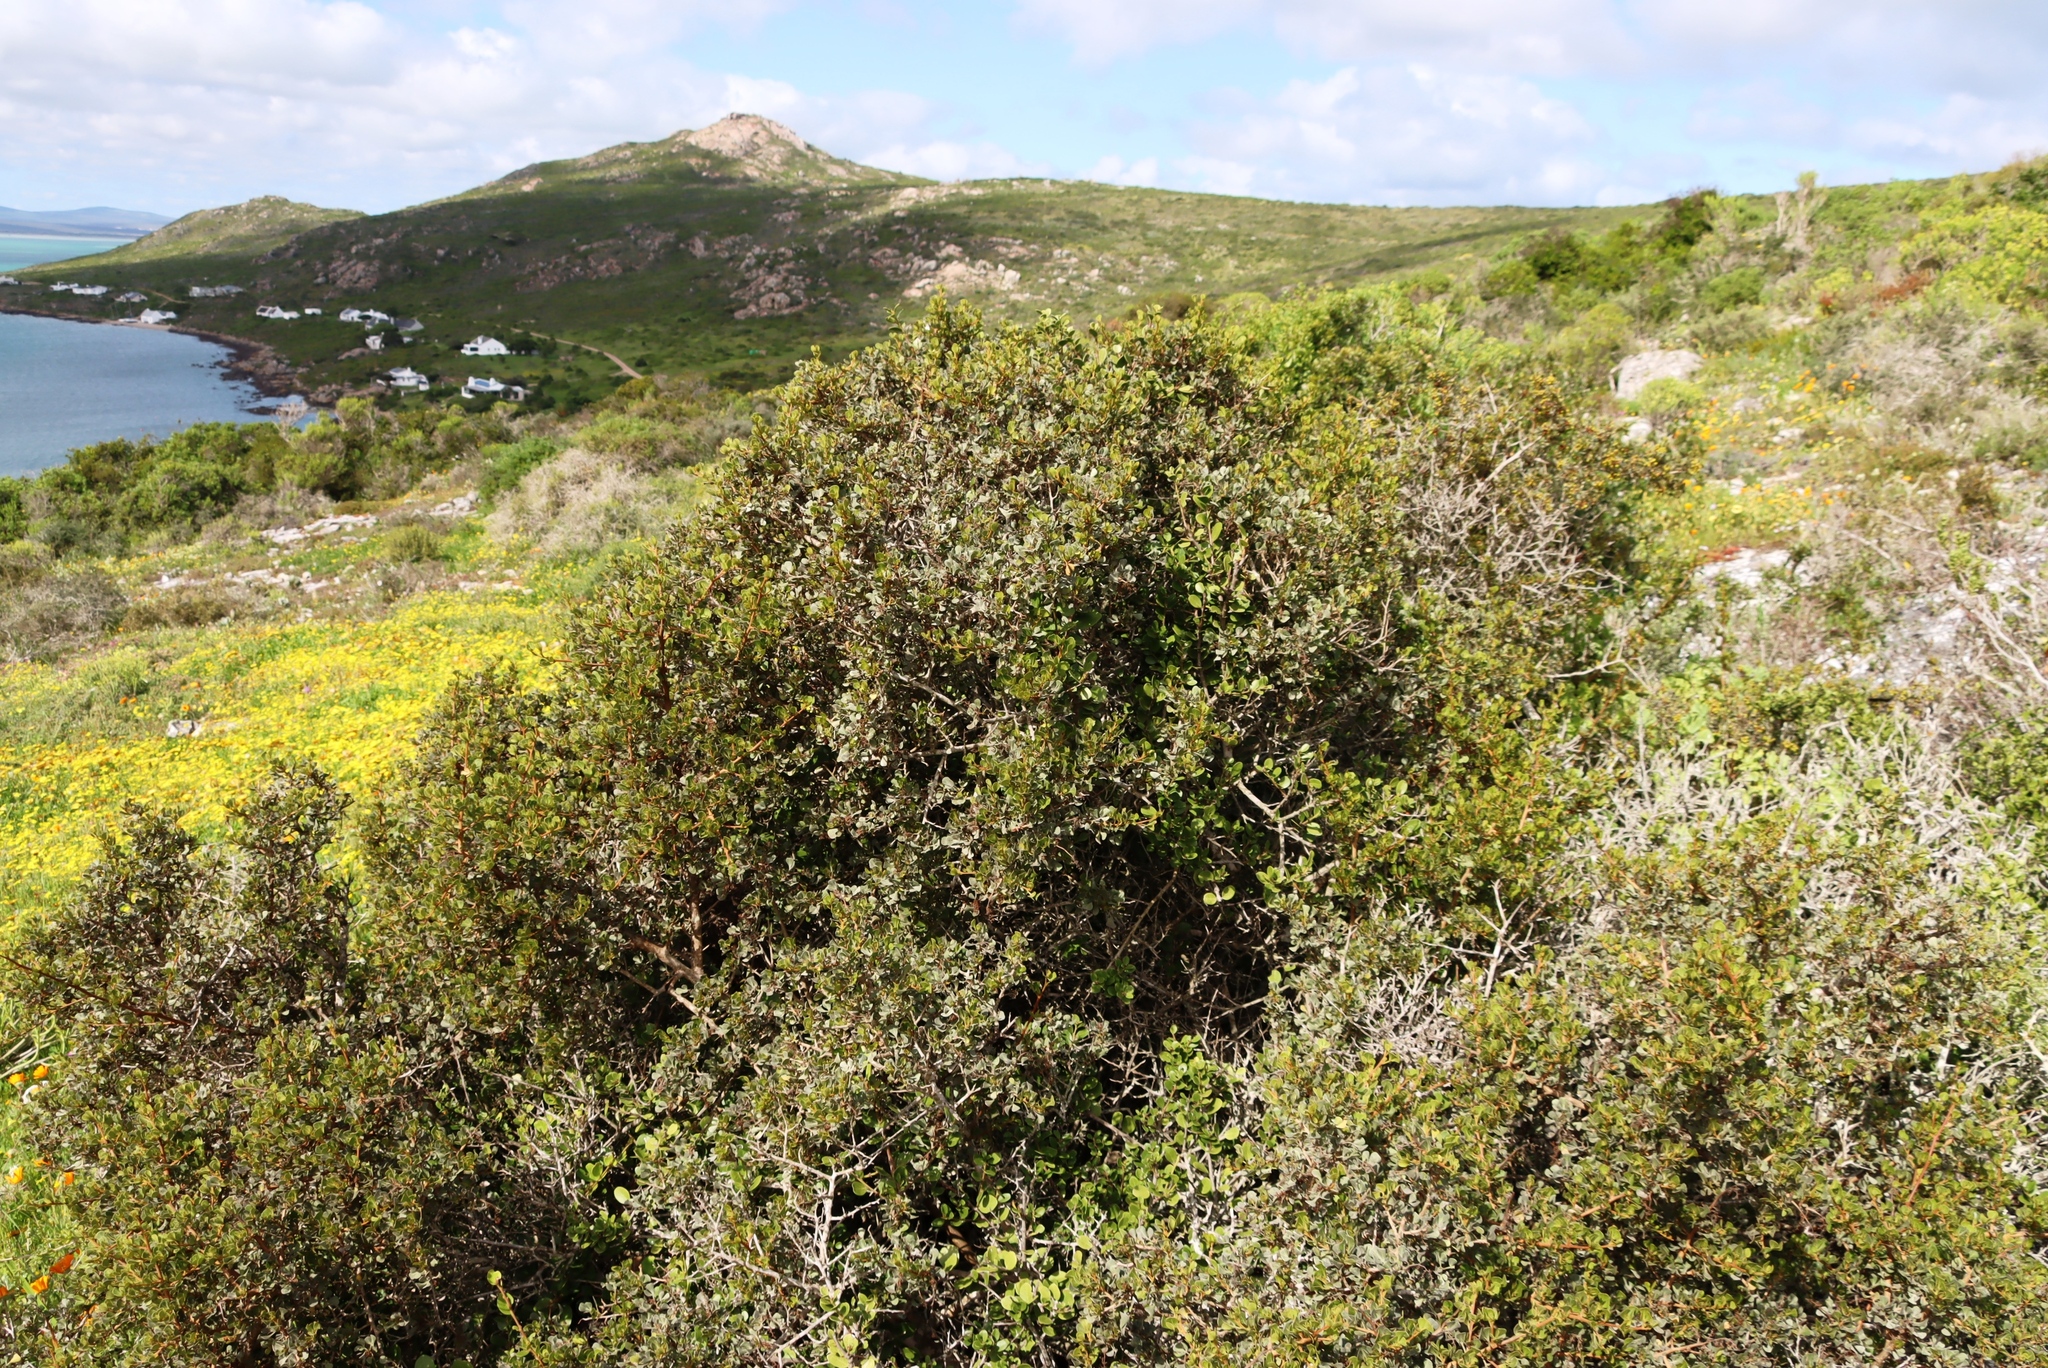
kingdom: Plantae
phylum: Tracheophyta
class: Magnoliopsida
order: Sapindales
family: Anacardiaceae
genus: Searsia
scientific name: Searsia glauca
